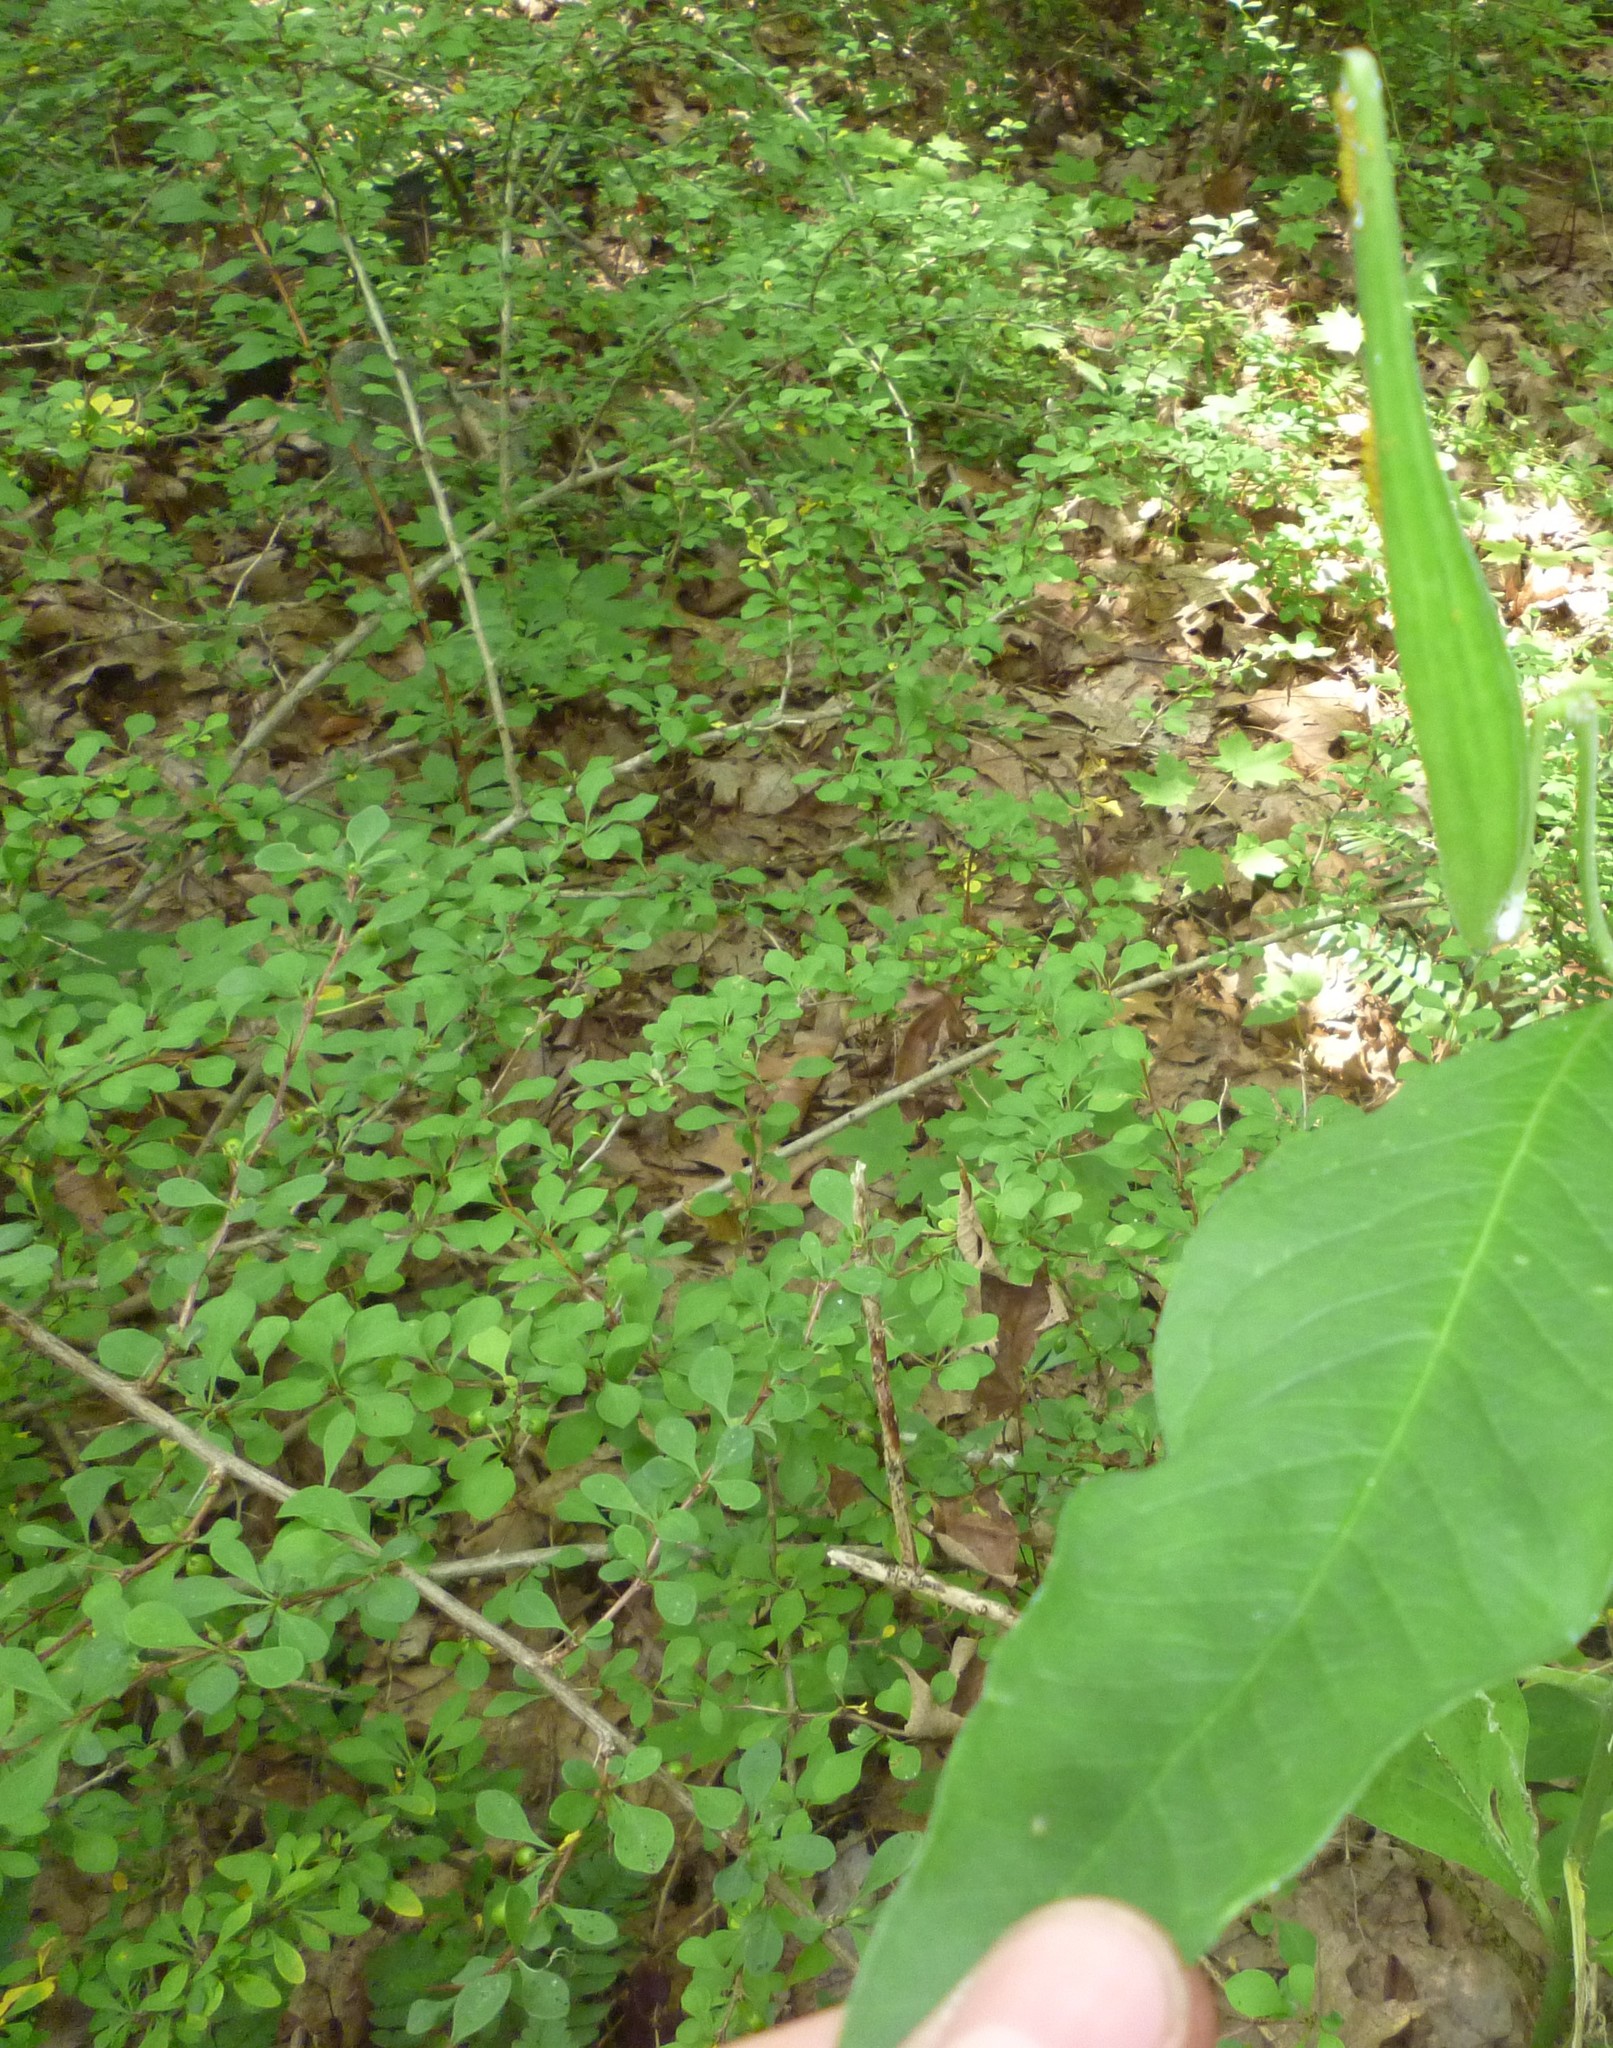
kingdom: Plantae
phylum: Tracheophyta
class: Magnoliopsida
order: Ranunculales
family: Berberidaceae
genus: Berberis
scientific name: Berberis thunbergii
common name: Japanese barberry
